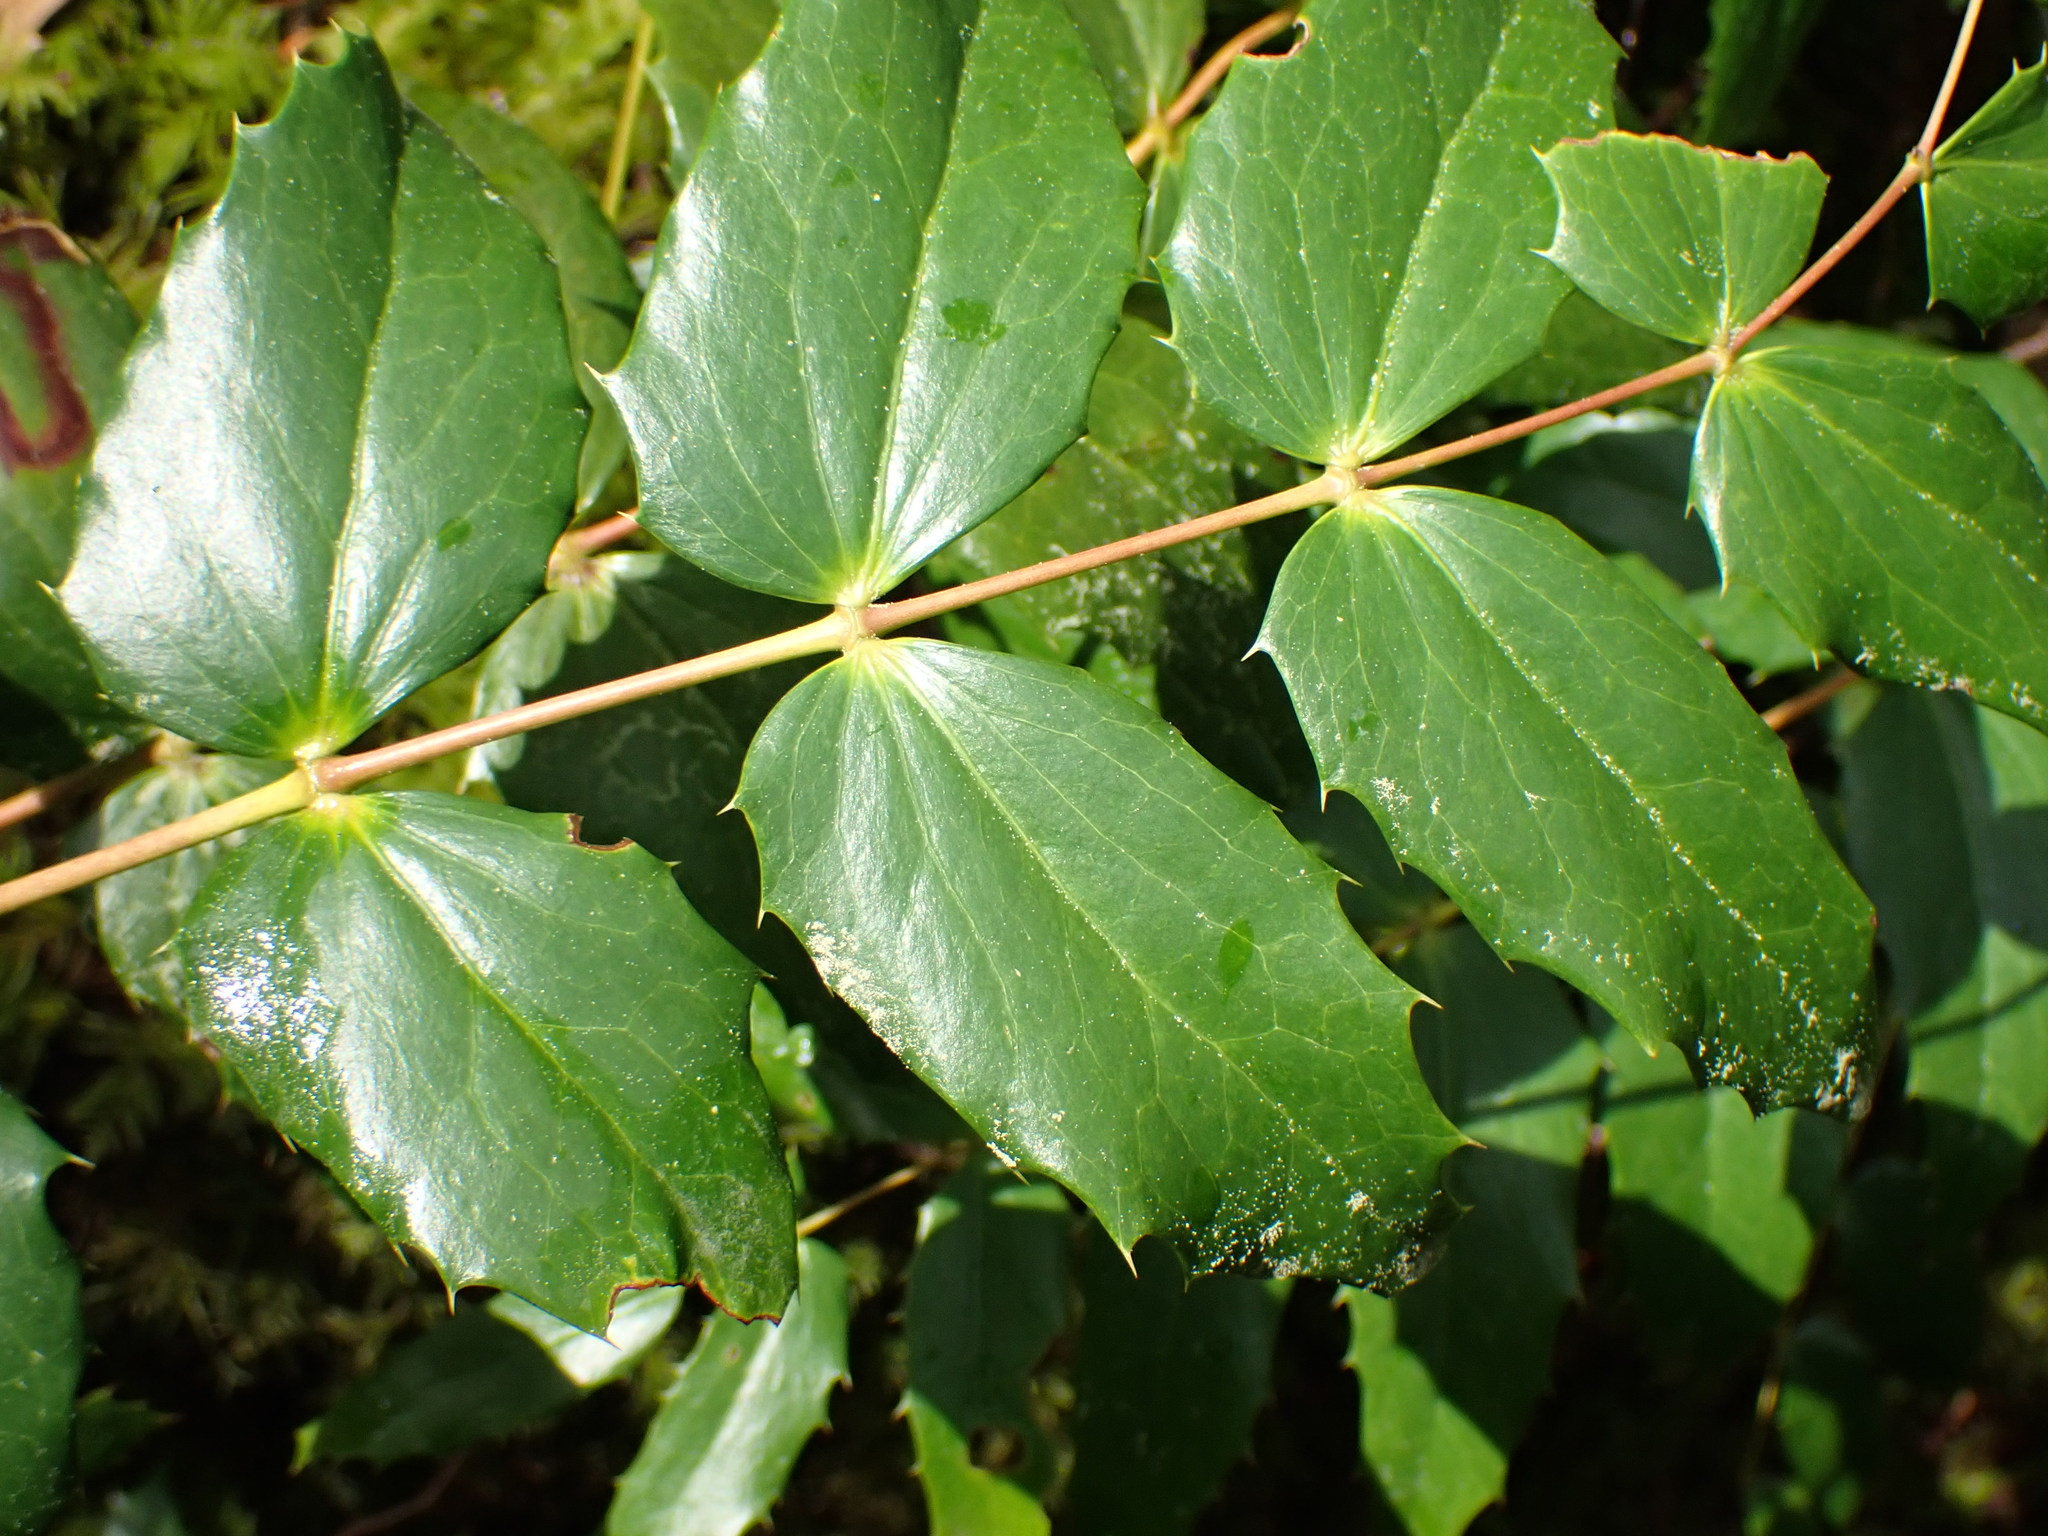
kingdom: Plantae
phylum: Tracheophyta
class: Magnoliopsida
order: Ranunculales
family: Berberidaceae
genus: Mahonia
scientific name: Mahonia nervosa
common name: Cascade oregon-grape
